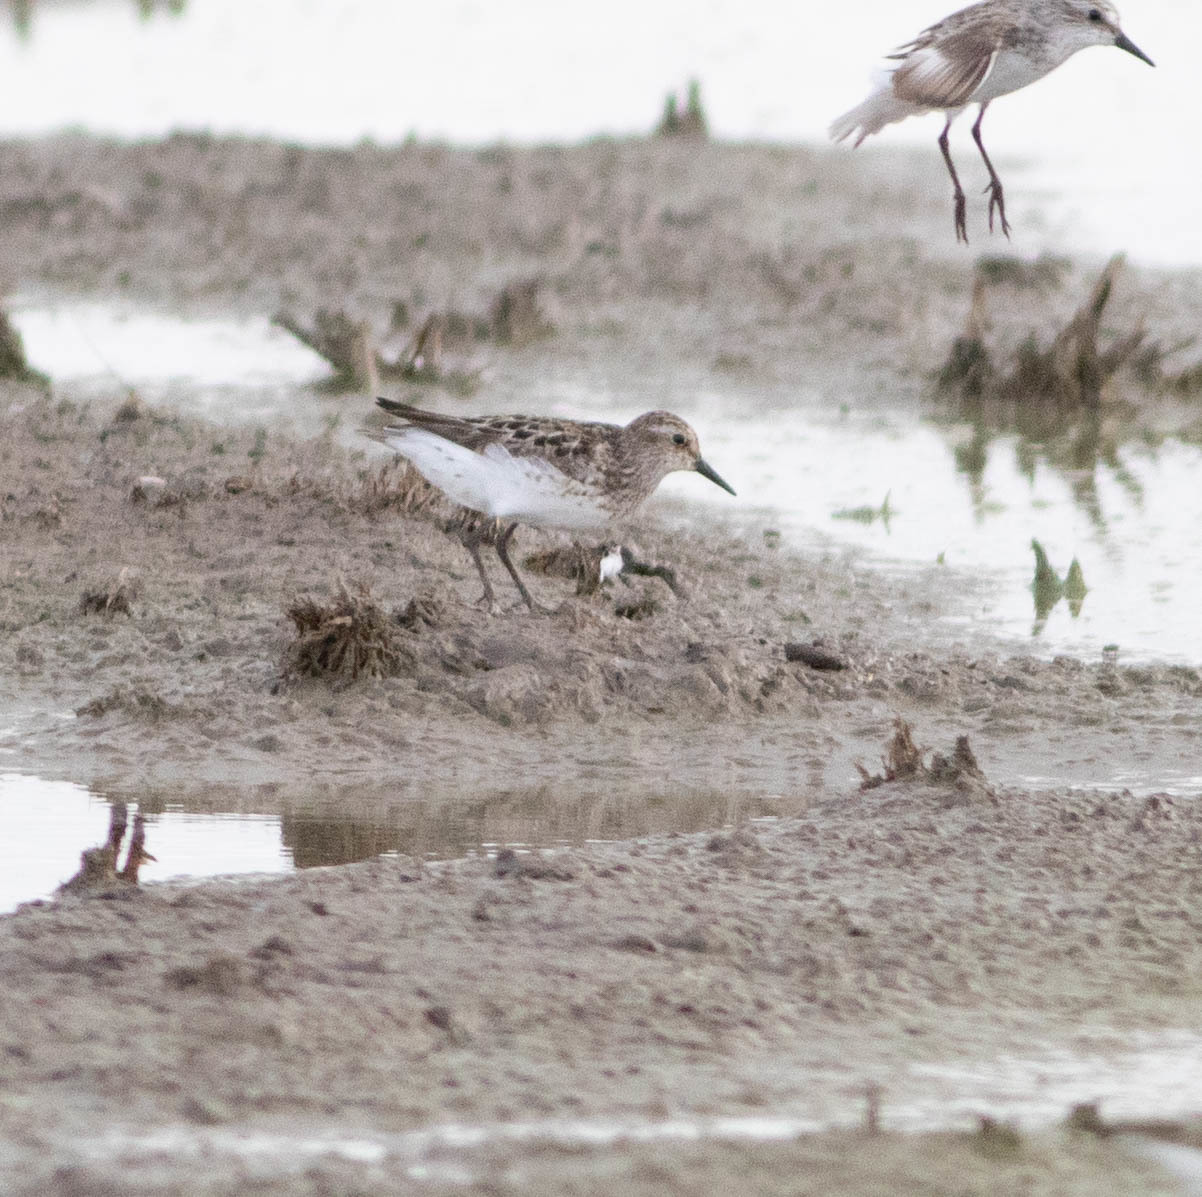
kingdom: Animalia
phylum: Chordata
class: Aves
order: Charadriiformes
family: Scolopacidae
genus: Calidris
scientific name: Calidris pusilla
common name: Semipalmated sandpiper
